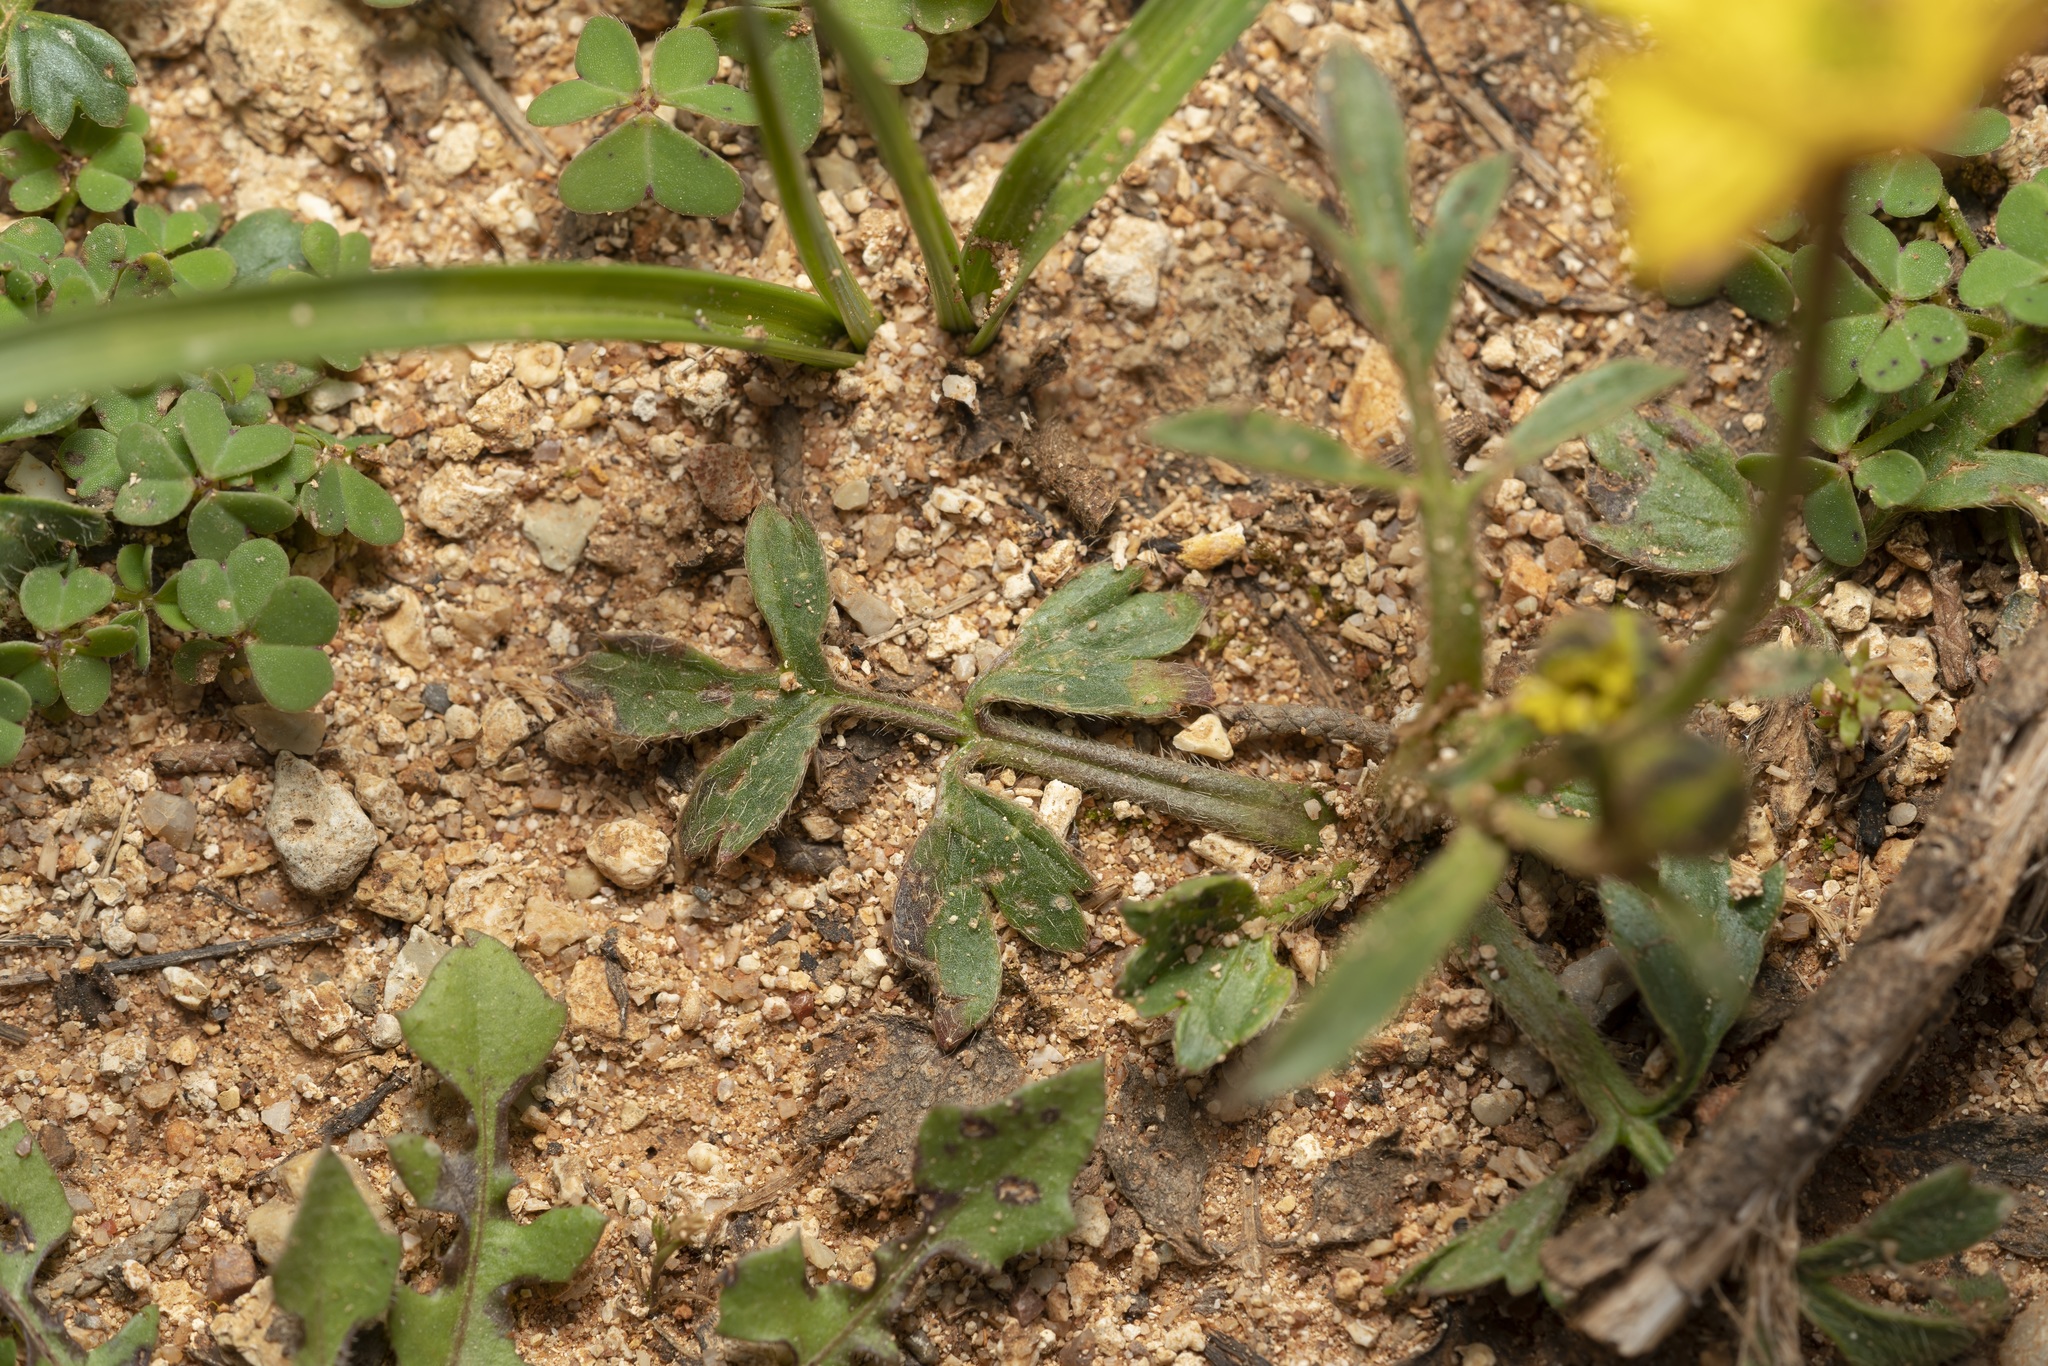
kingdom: Plantae
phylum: Tracheophyta
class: Magnoliopsida
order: Ranunculales
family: Ranunculaceae
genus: Ranunculus
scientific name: Ranunculus paludosus
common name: Jersey buttercup
